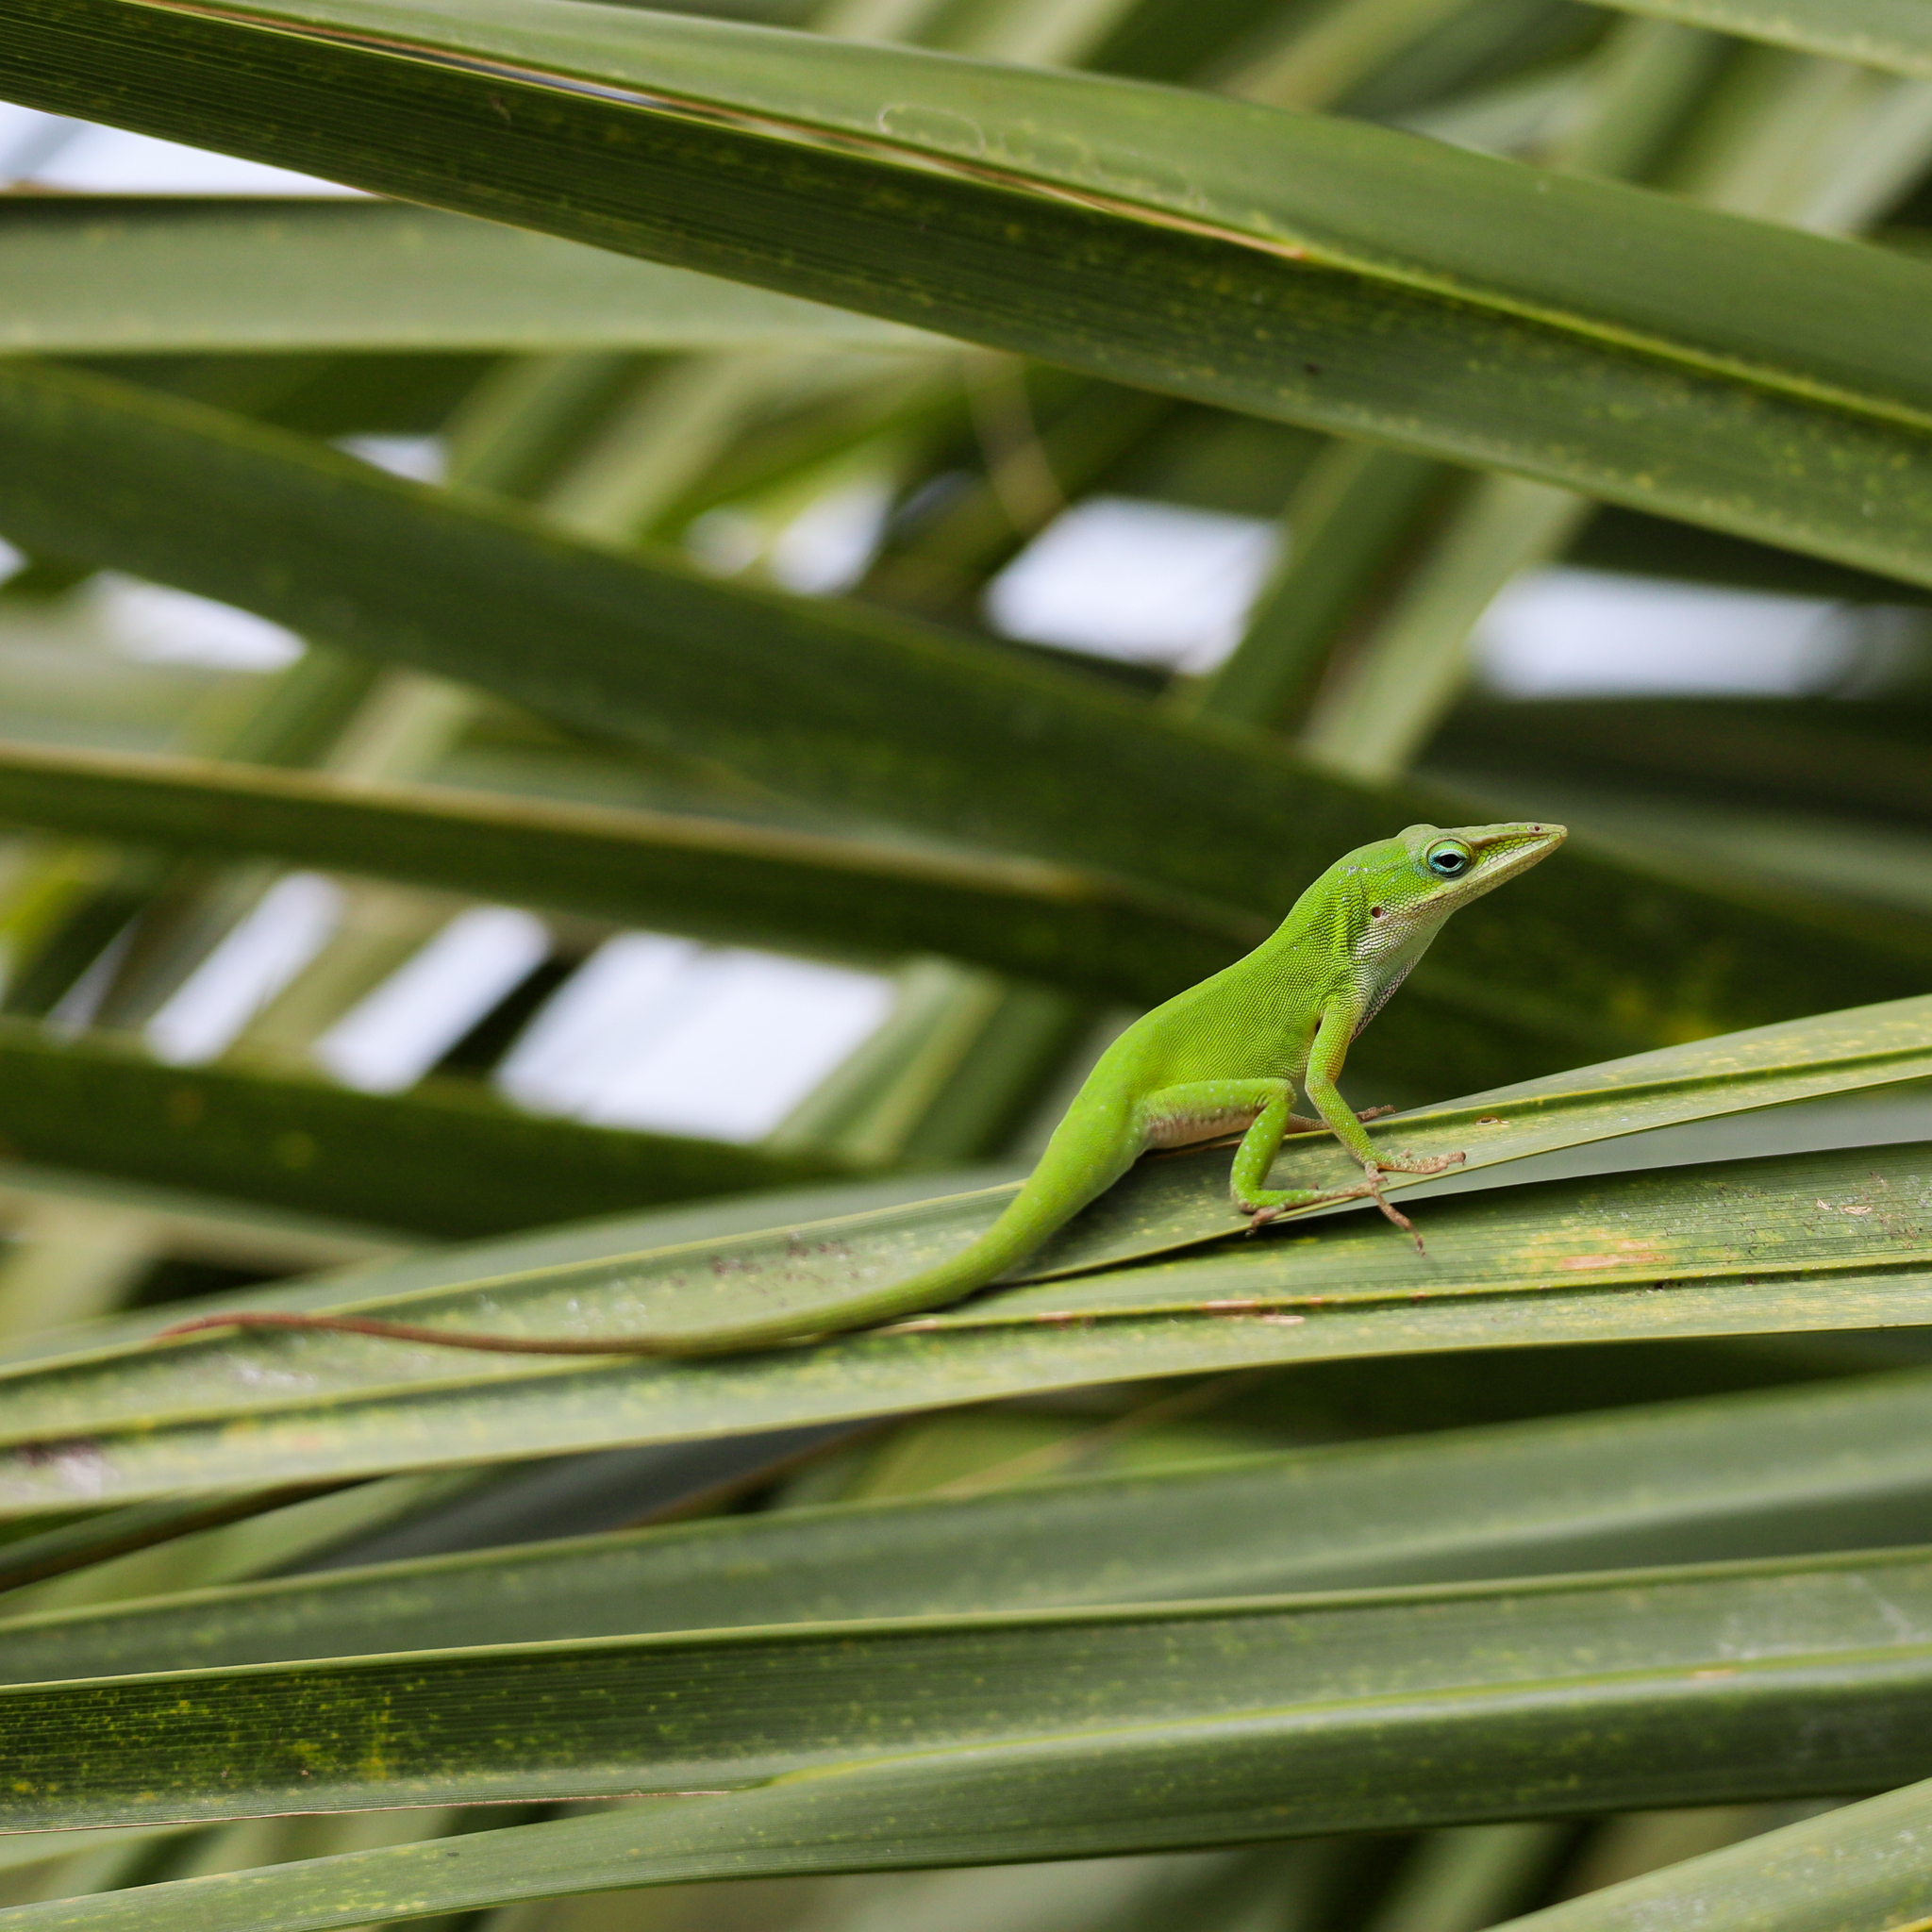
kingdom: Animalia
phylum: Chordata
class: Squamata
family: Dactyloidae
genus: Anolis
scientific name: Anolis carolinensis
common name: Green anole
